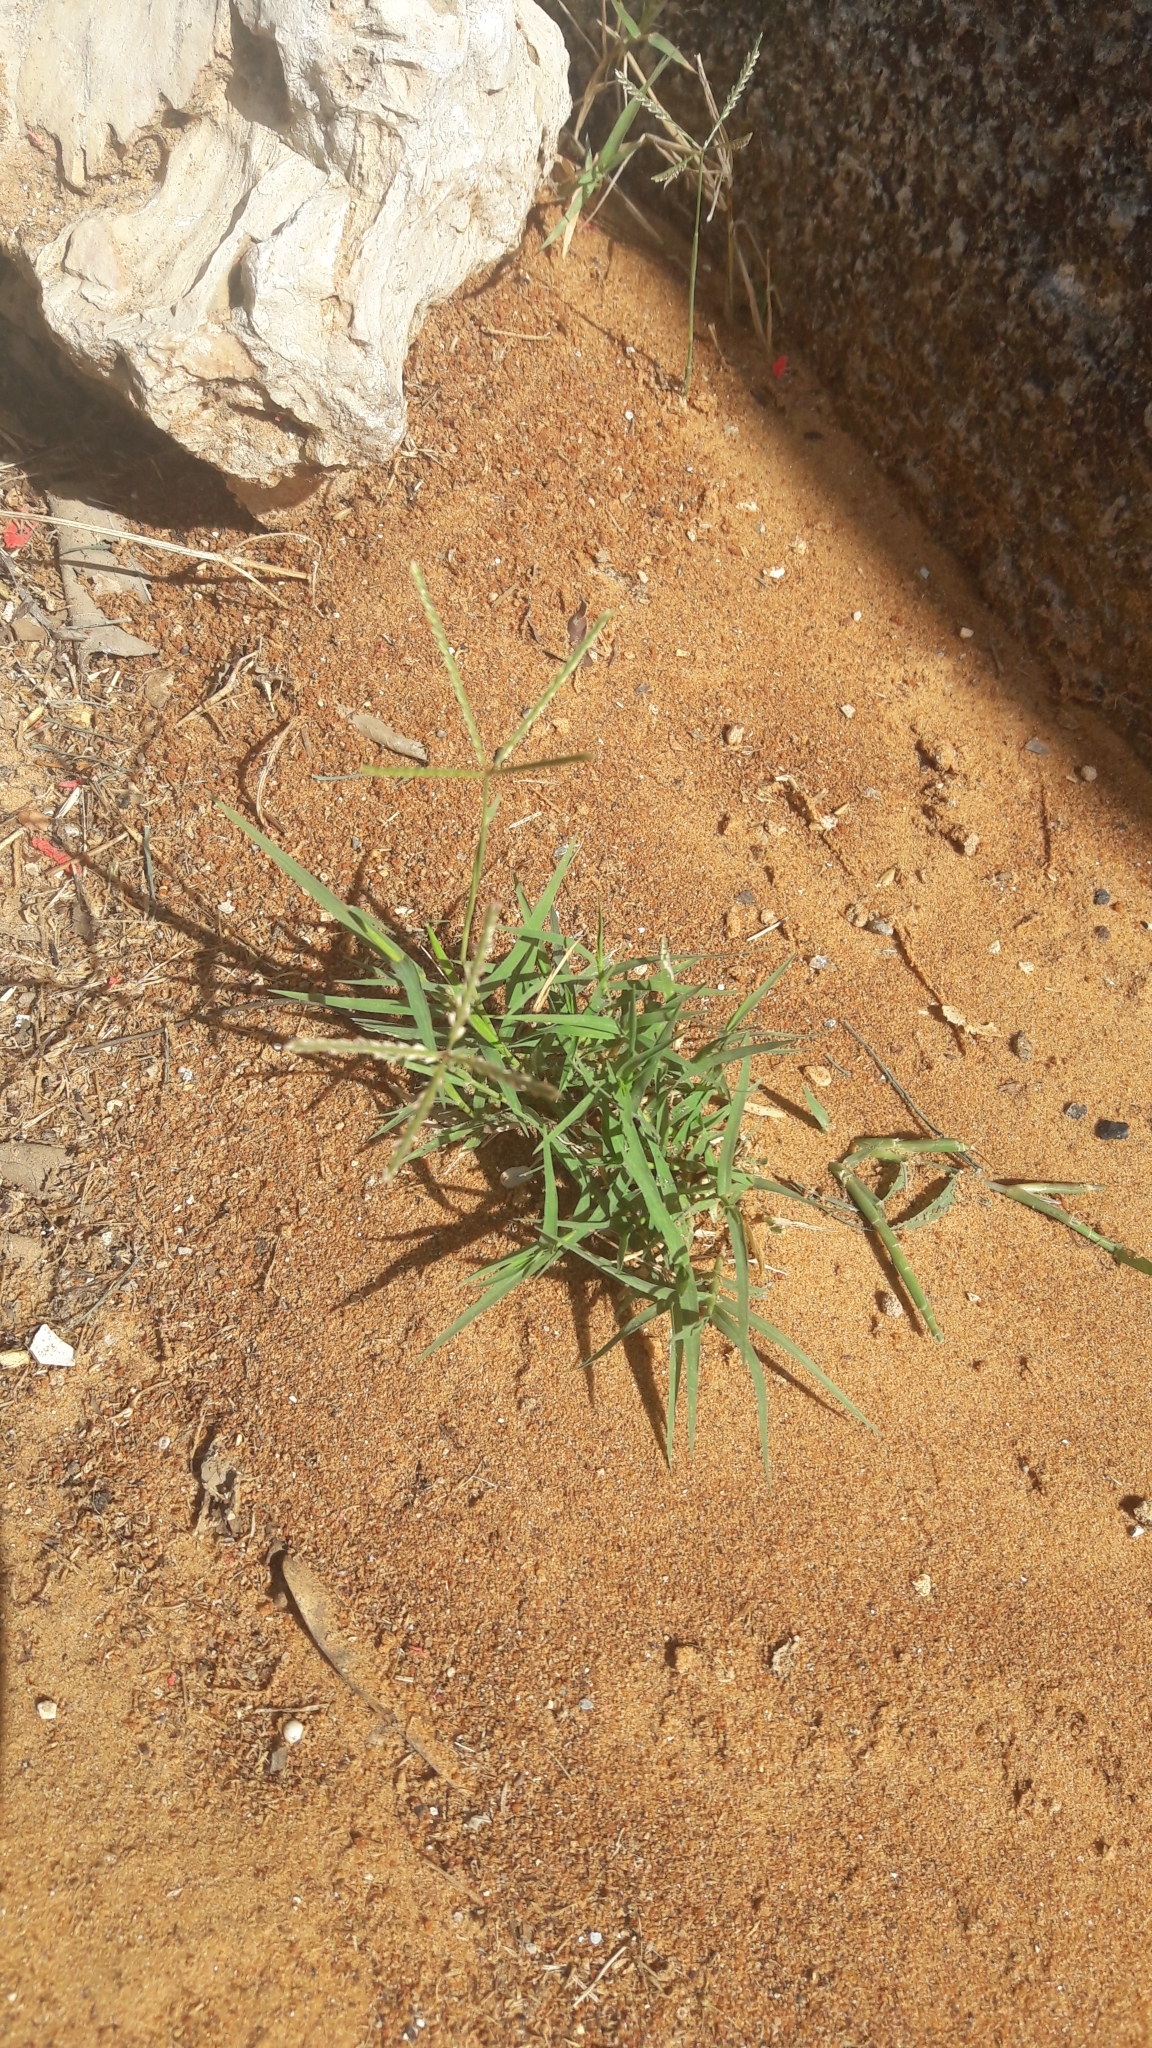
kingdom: Plantae
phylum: Tracheophyta
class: Liliopsida
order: Poales
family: Poaceae
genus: Cynodon
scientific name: Cynodon dactylon
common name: Bermuda grass
